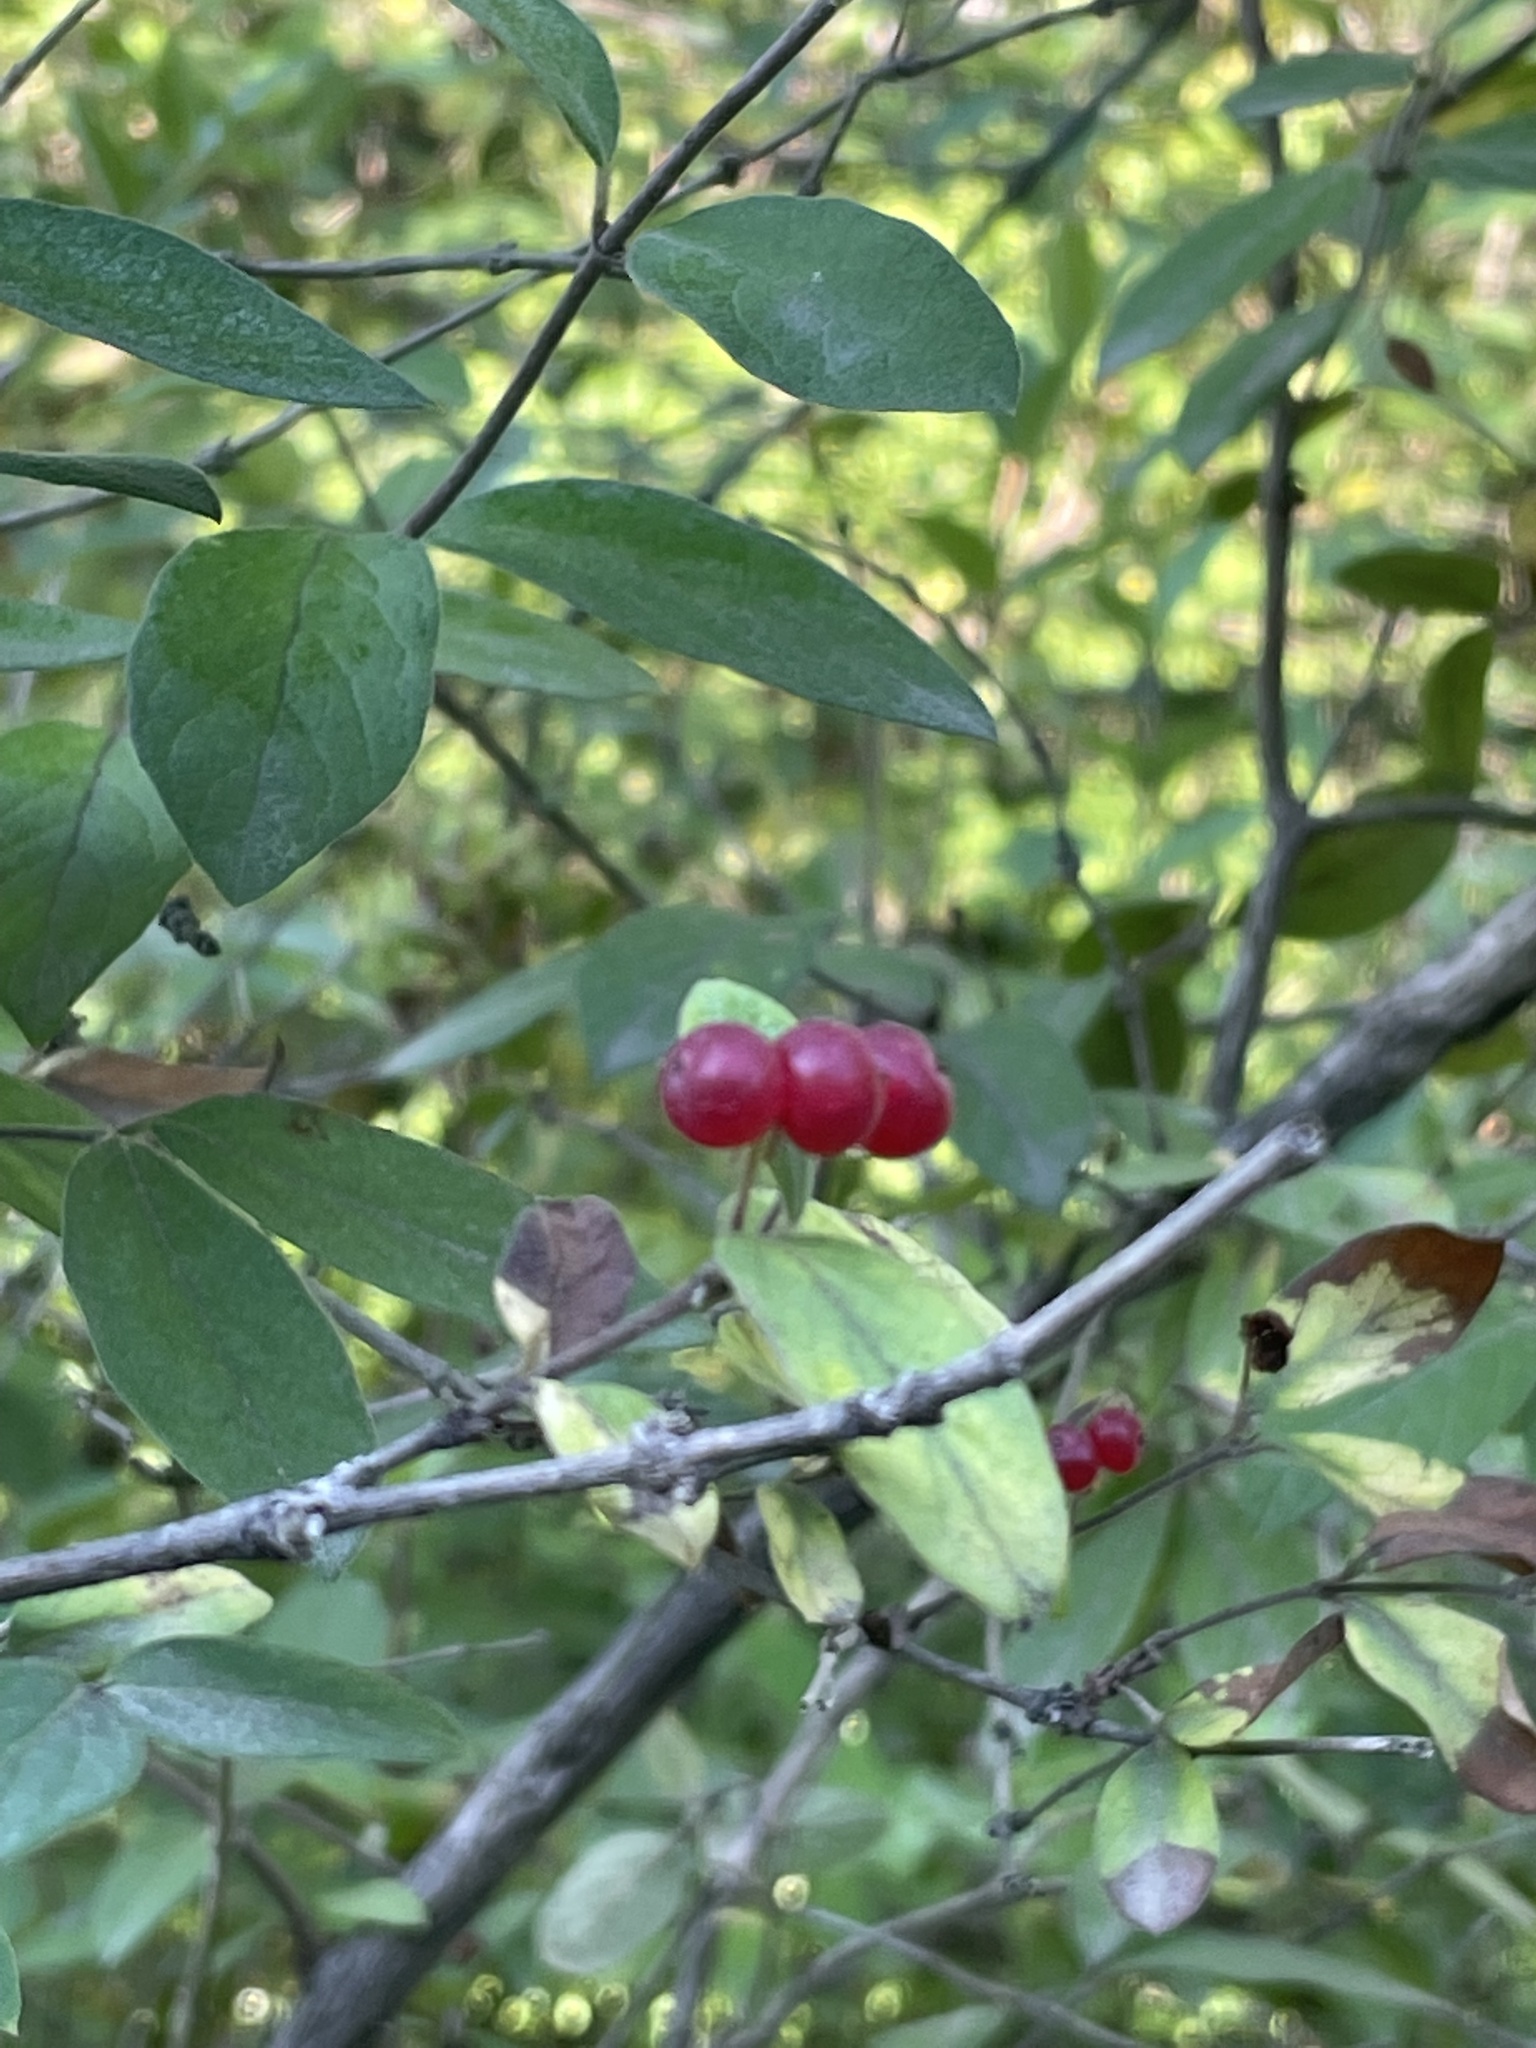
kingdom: Plantae
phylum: Tracheophyta
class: Magnoliopsida
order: Dipsacales
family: Caprifoliaceae
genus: Lonicera
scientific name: Lonicera morrowii
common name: Morrow's honeysuckle
